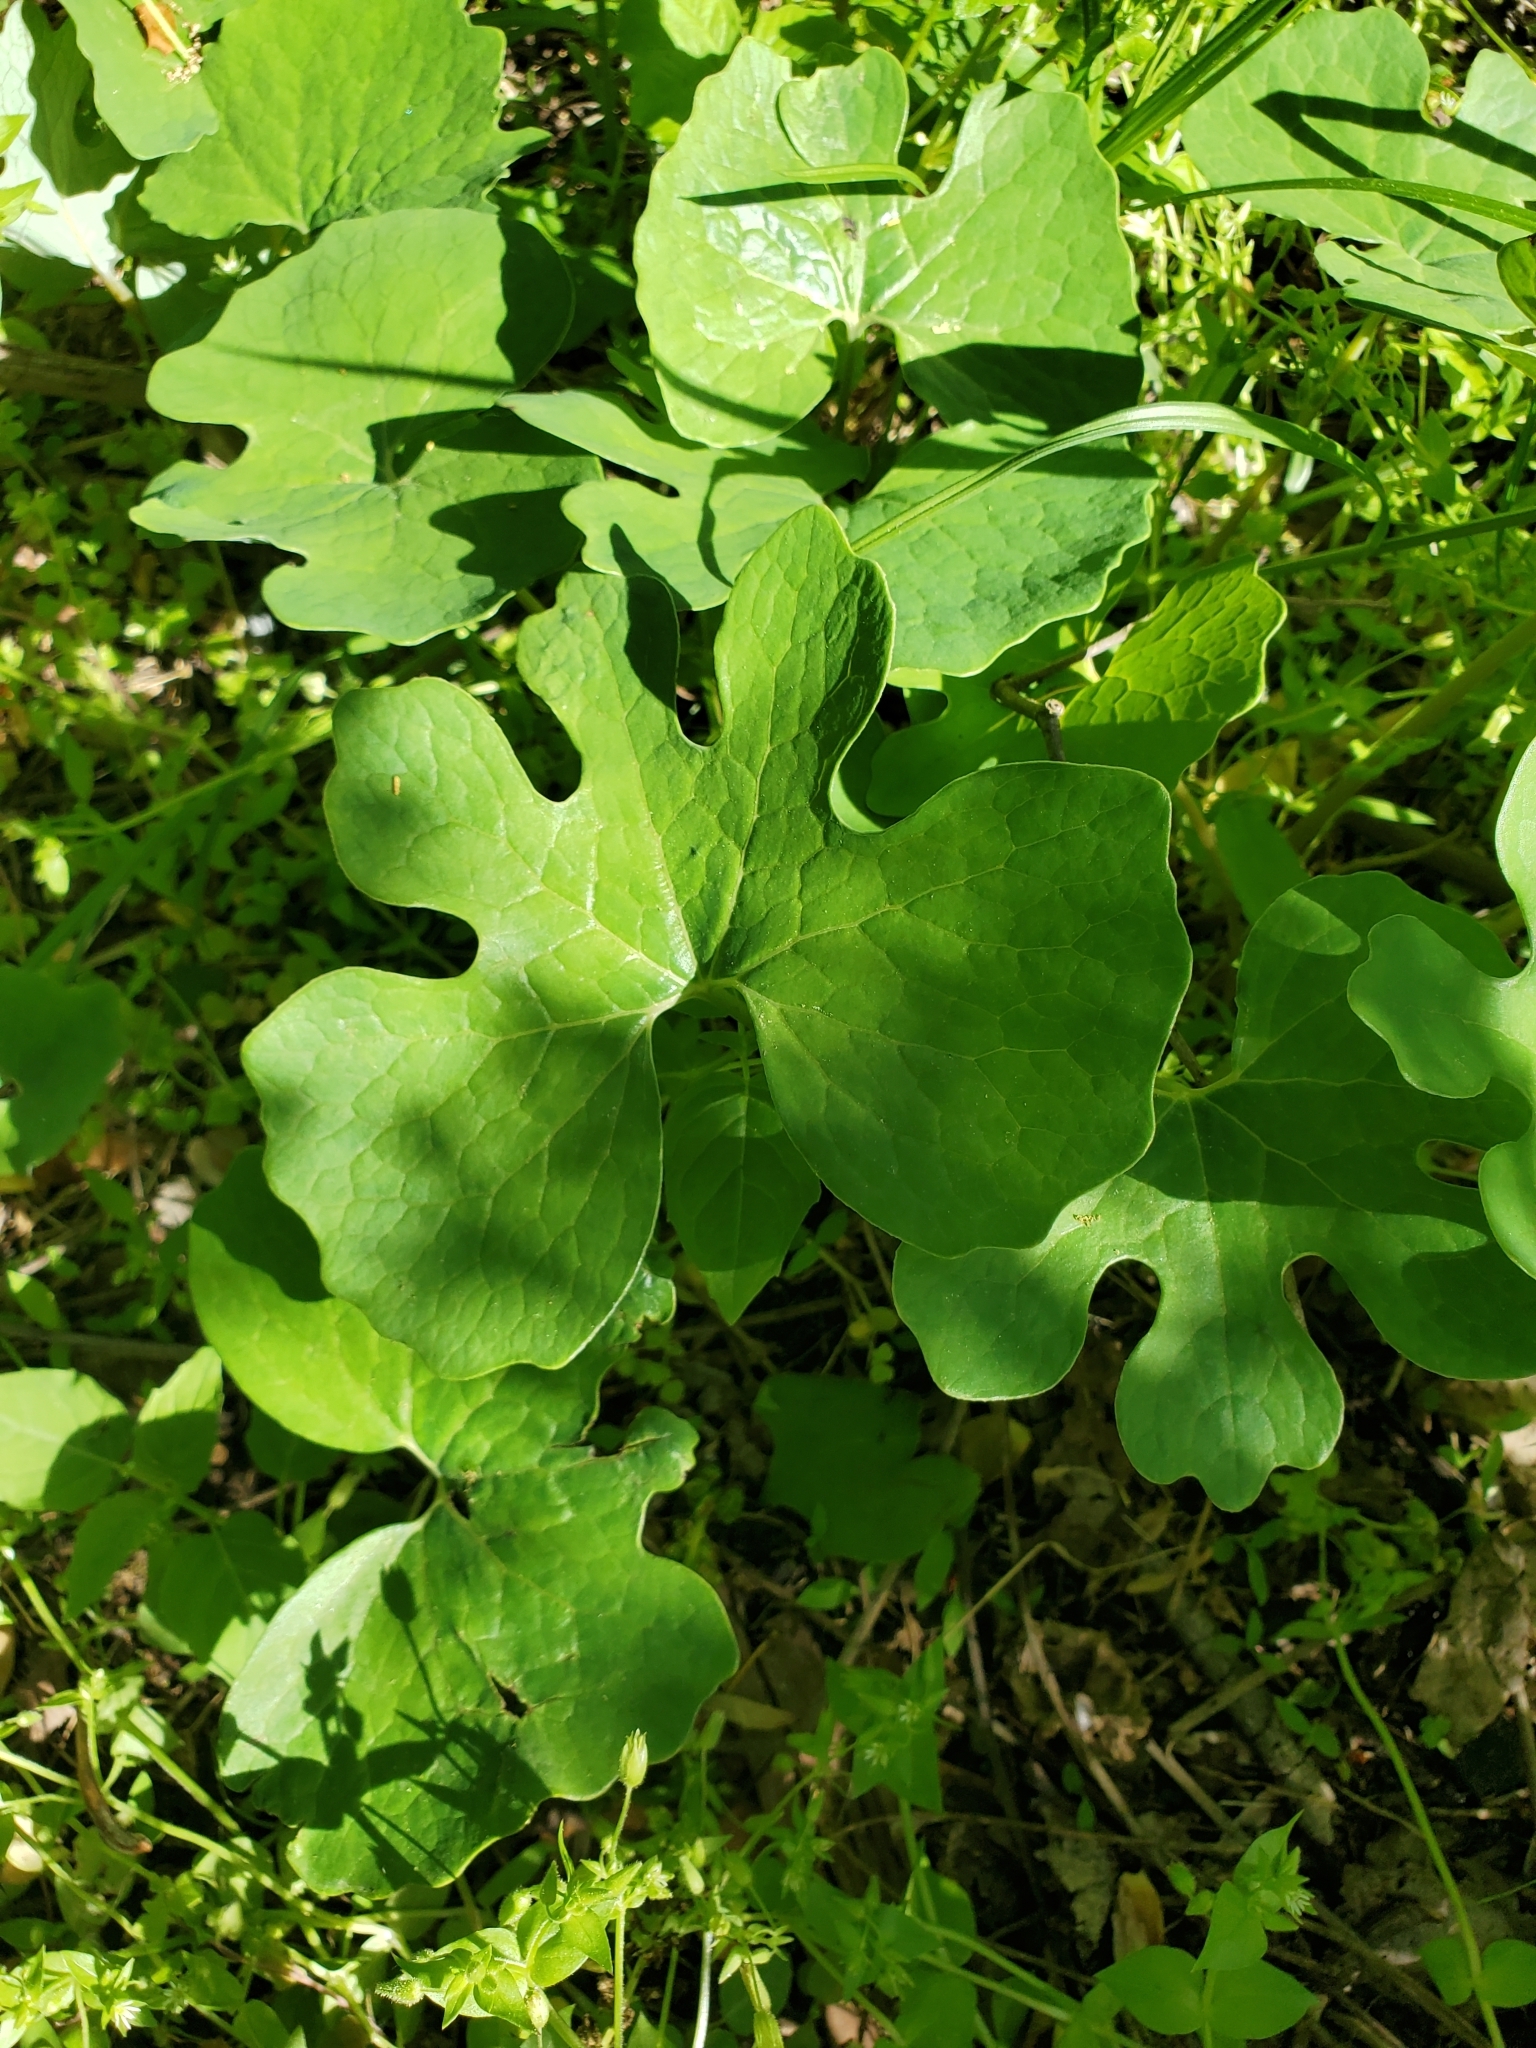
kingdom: Plantae
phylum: Tracheophyta
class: Magnoliopsida
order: Ranunculales
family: Papaveraceae
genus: Sanguinaria
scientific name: Sanguinaria canadensis
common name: Bloodroot
